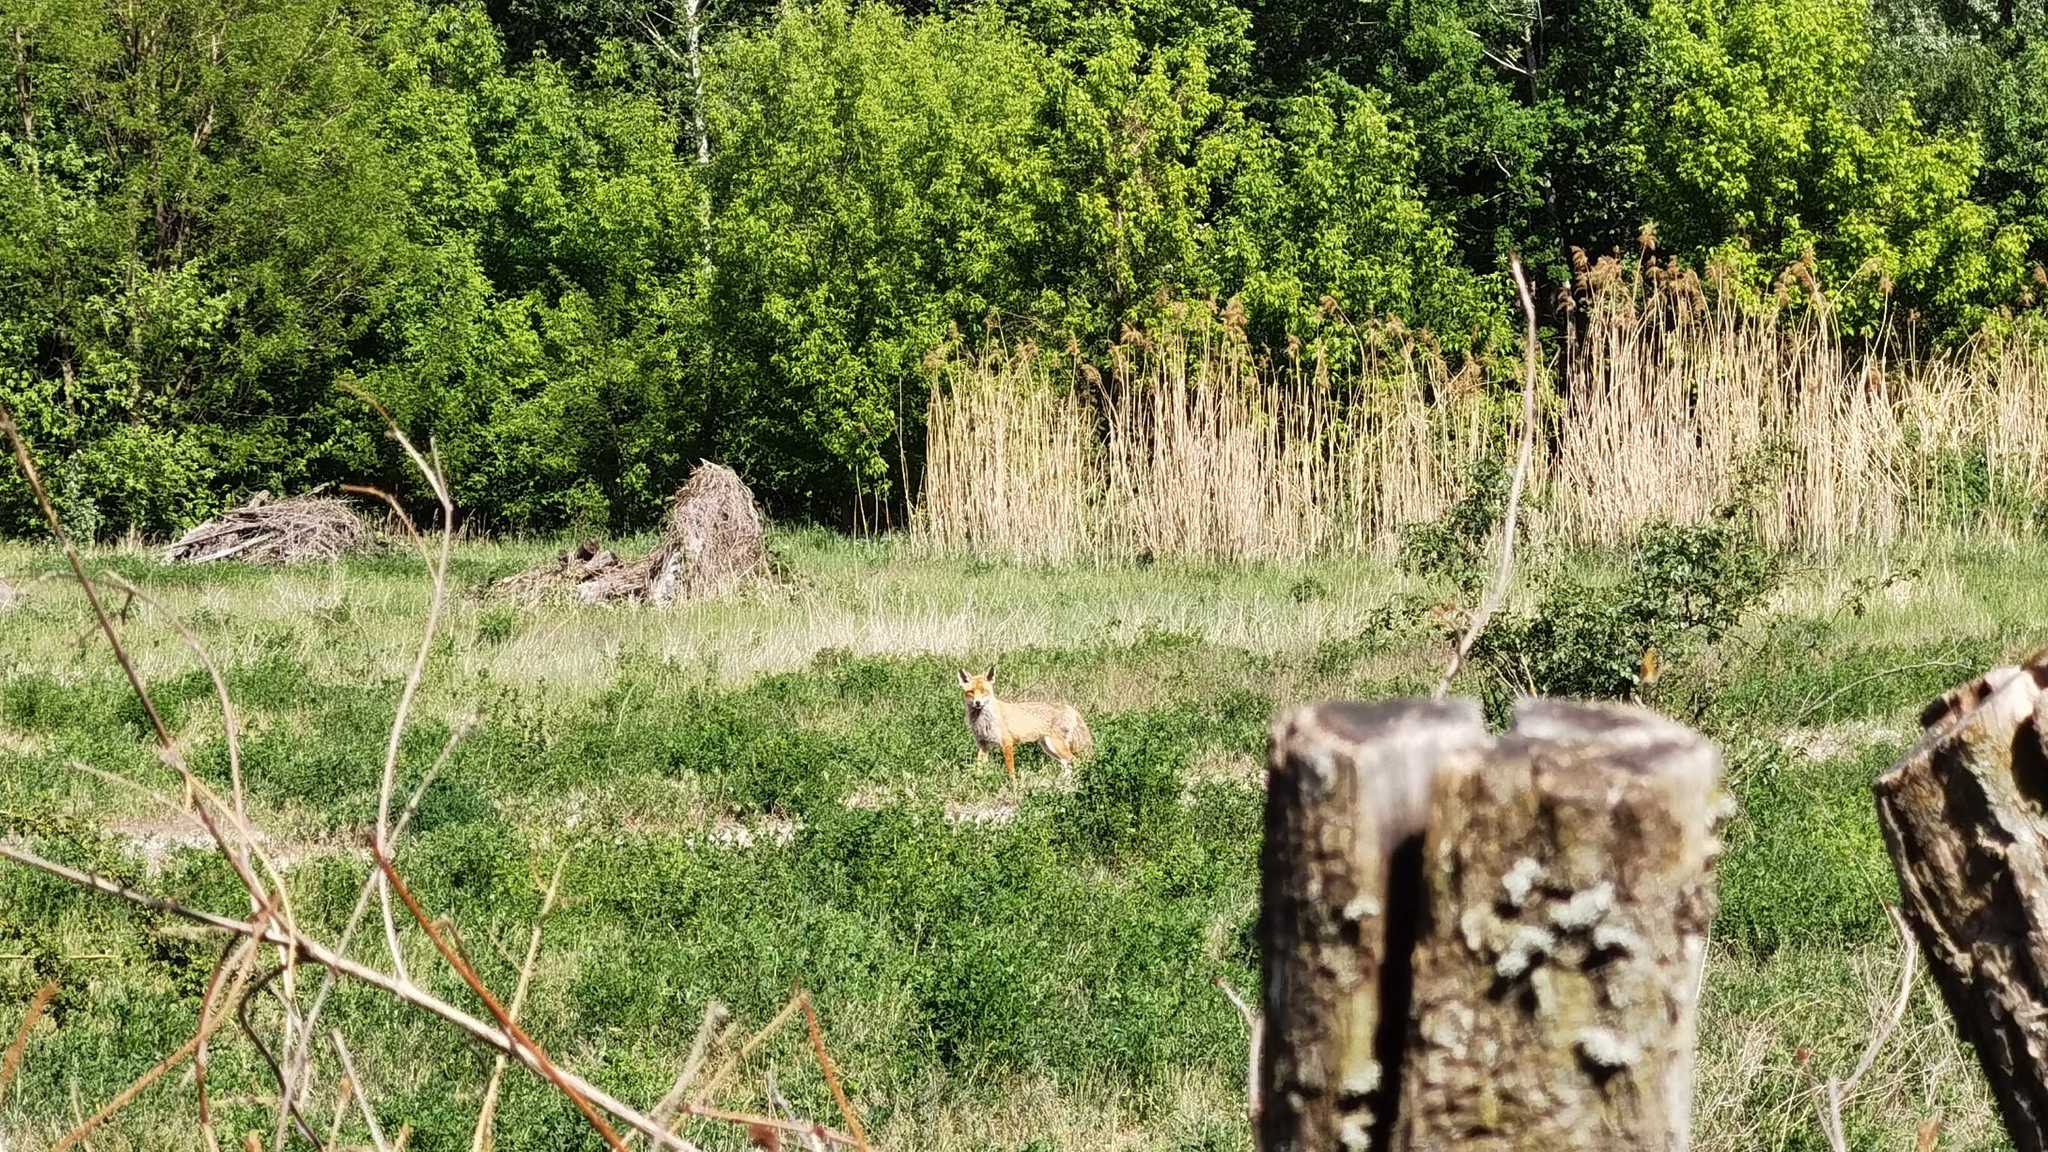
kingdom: Animalia
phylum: Chordata
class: Mammalia
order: Carnivora
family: Canidae
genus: Vulpes
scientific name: Vulpes vulpes
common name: Red fox
